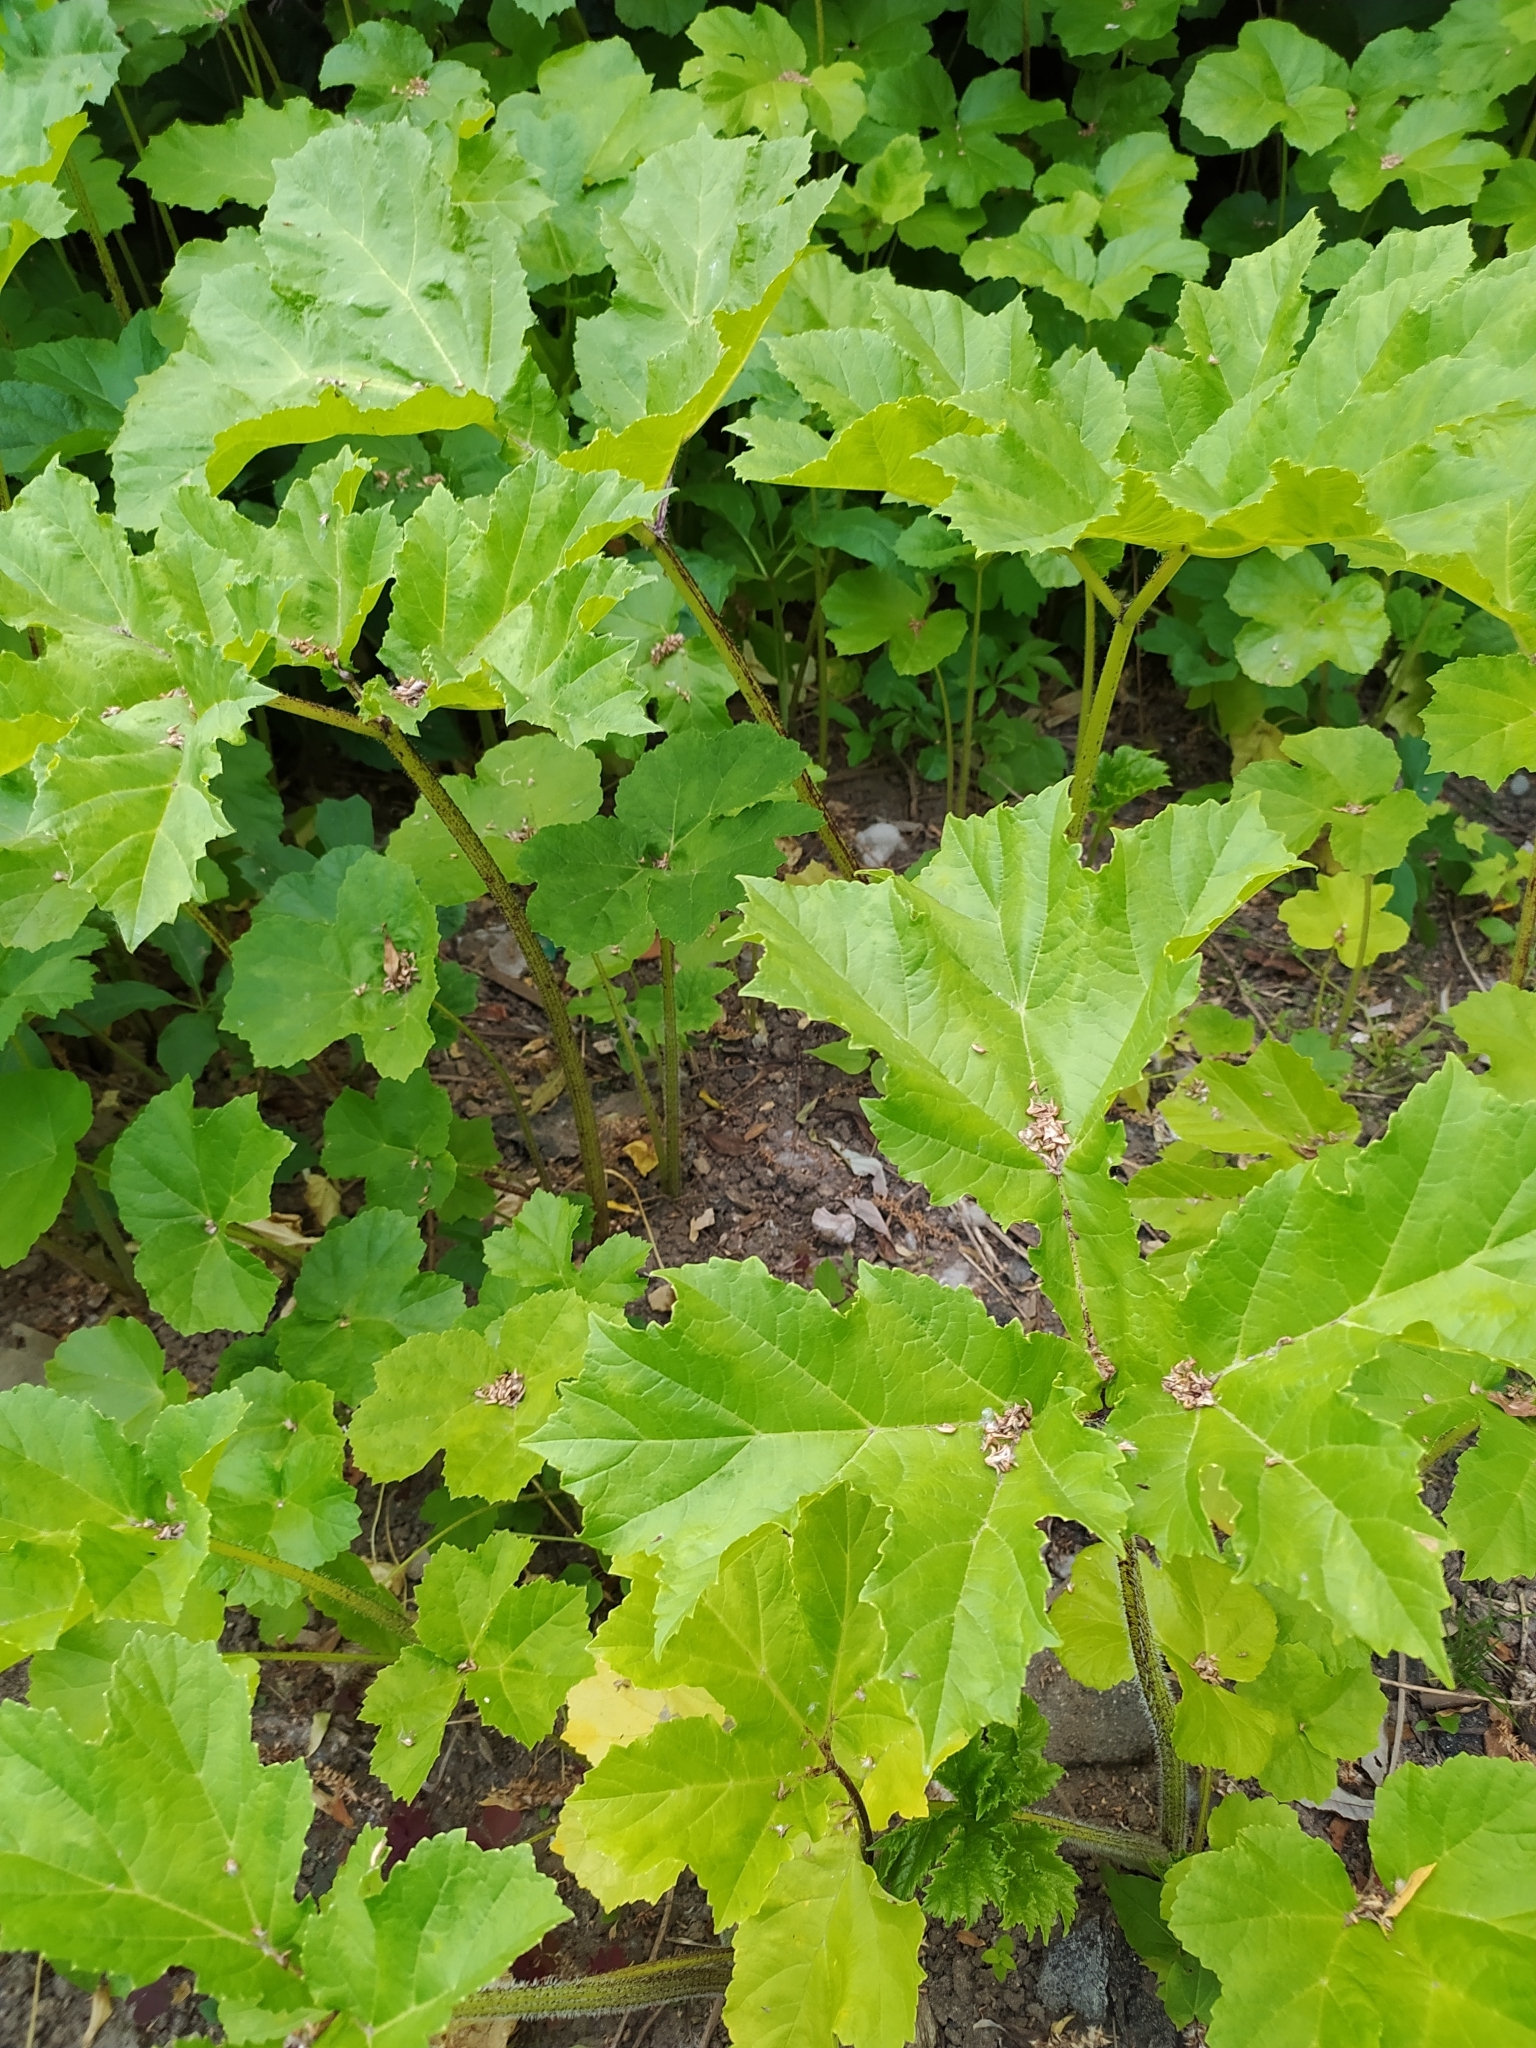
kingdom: Plantae
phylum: Tracheophyta
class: Magnoliopsida
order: Apiales
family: Apiaceae
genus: Heracleum
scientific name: Heracleum sosnowskyi
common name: Sosnowsky's hogweed
